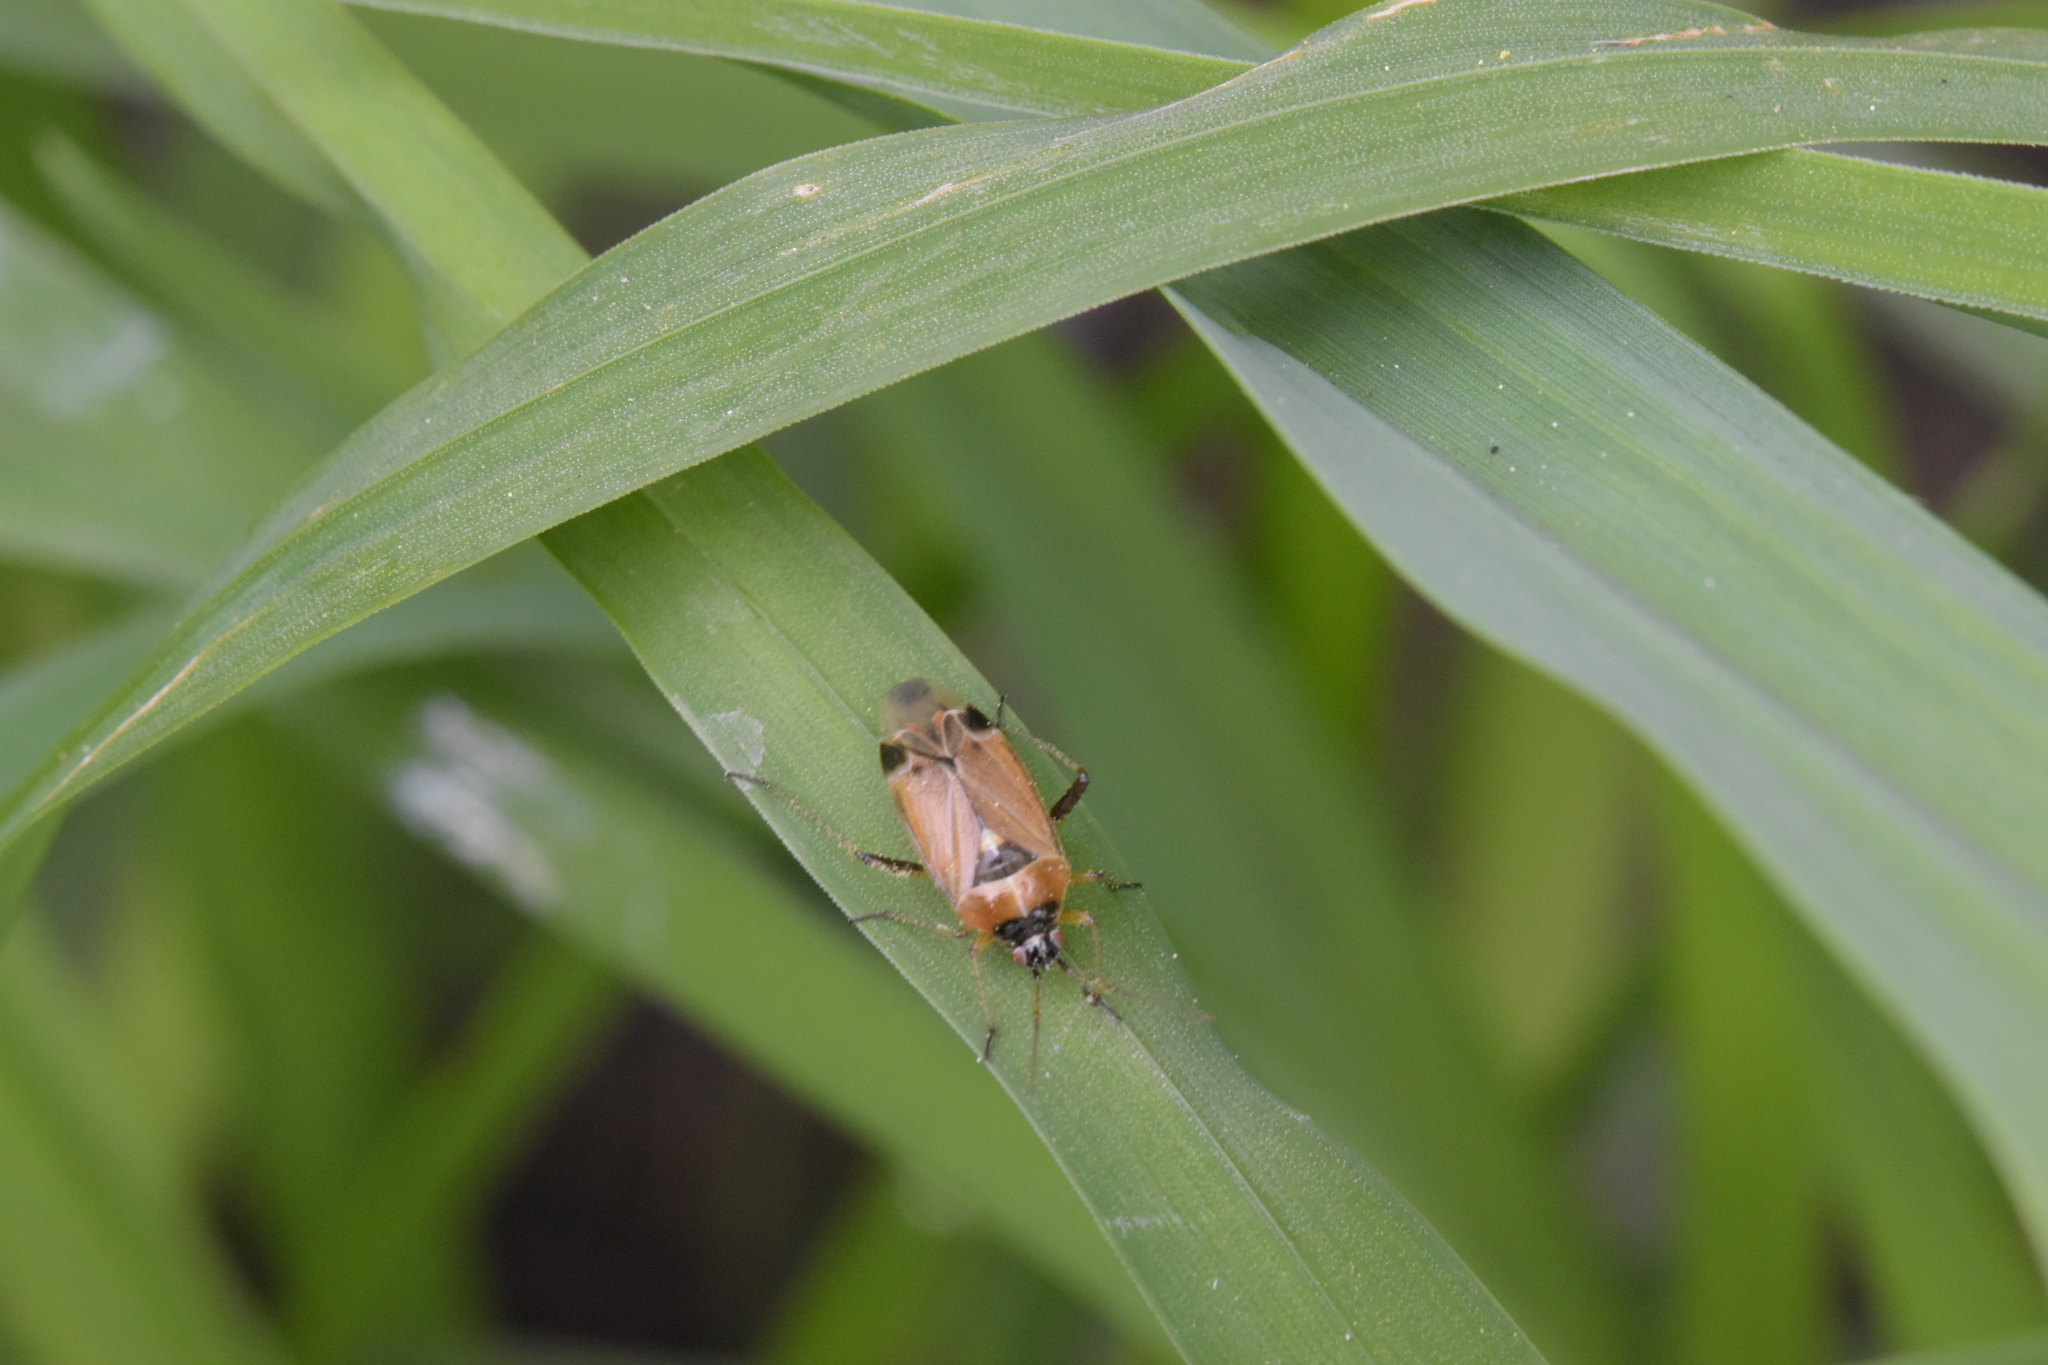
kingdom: Animalia
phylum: Arthropoda
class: Insecta
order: Hemiptera
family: Miridae
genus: Harpocera
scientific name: Harpocera thoracica
